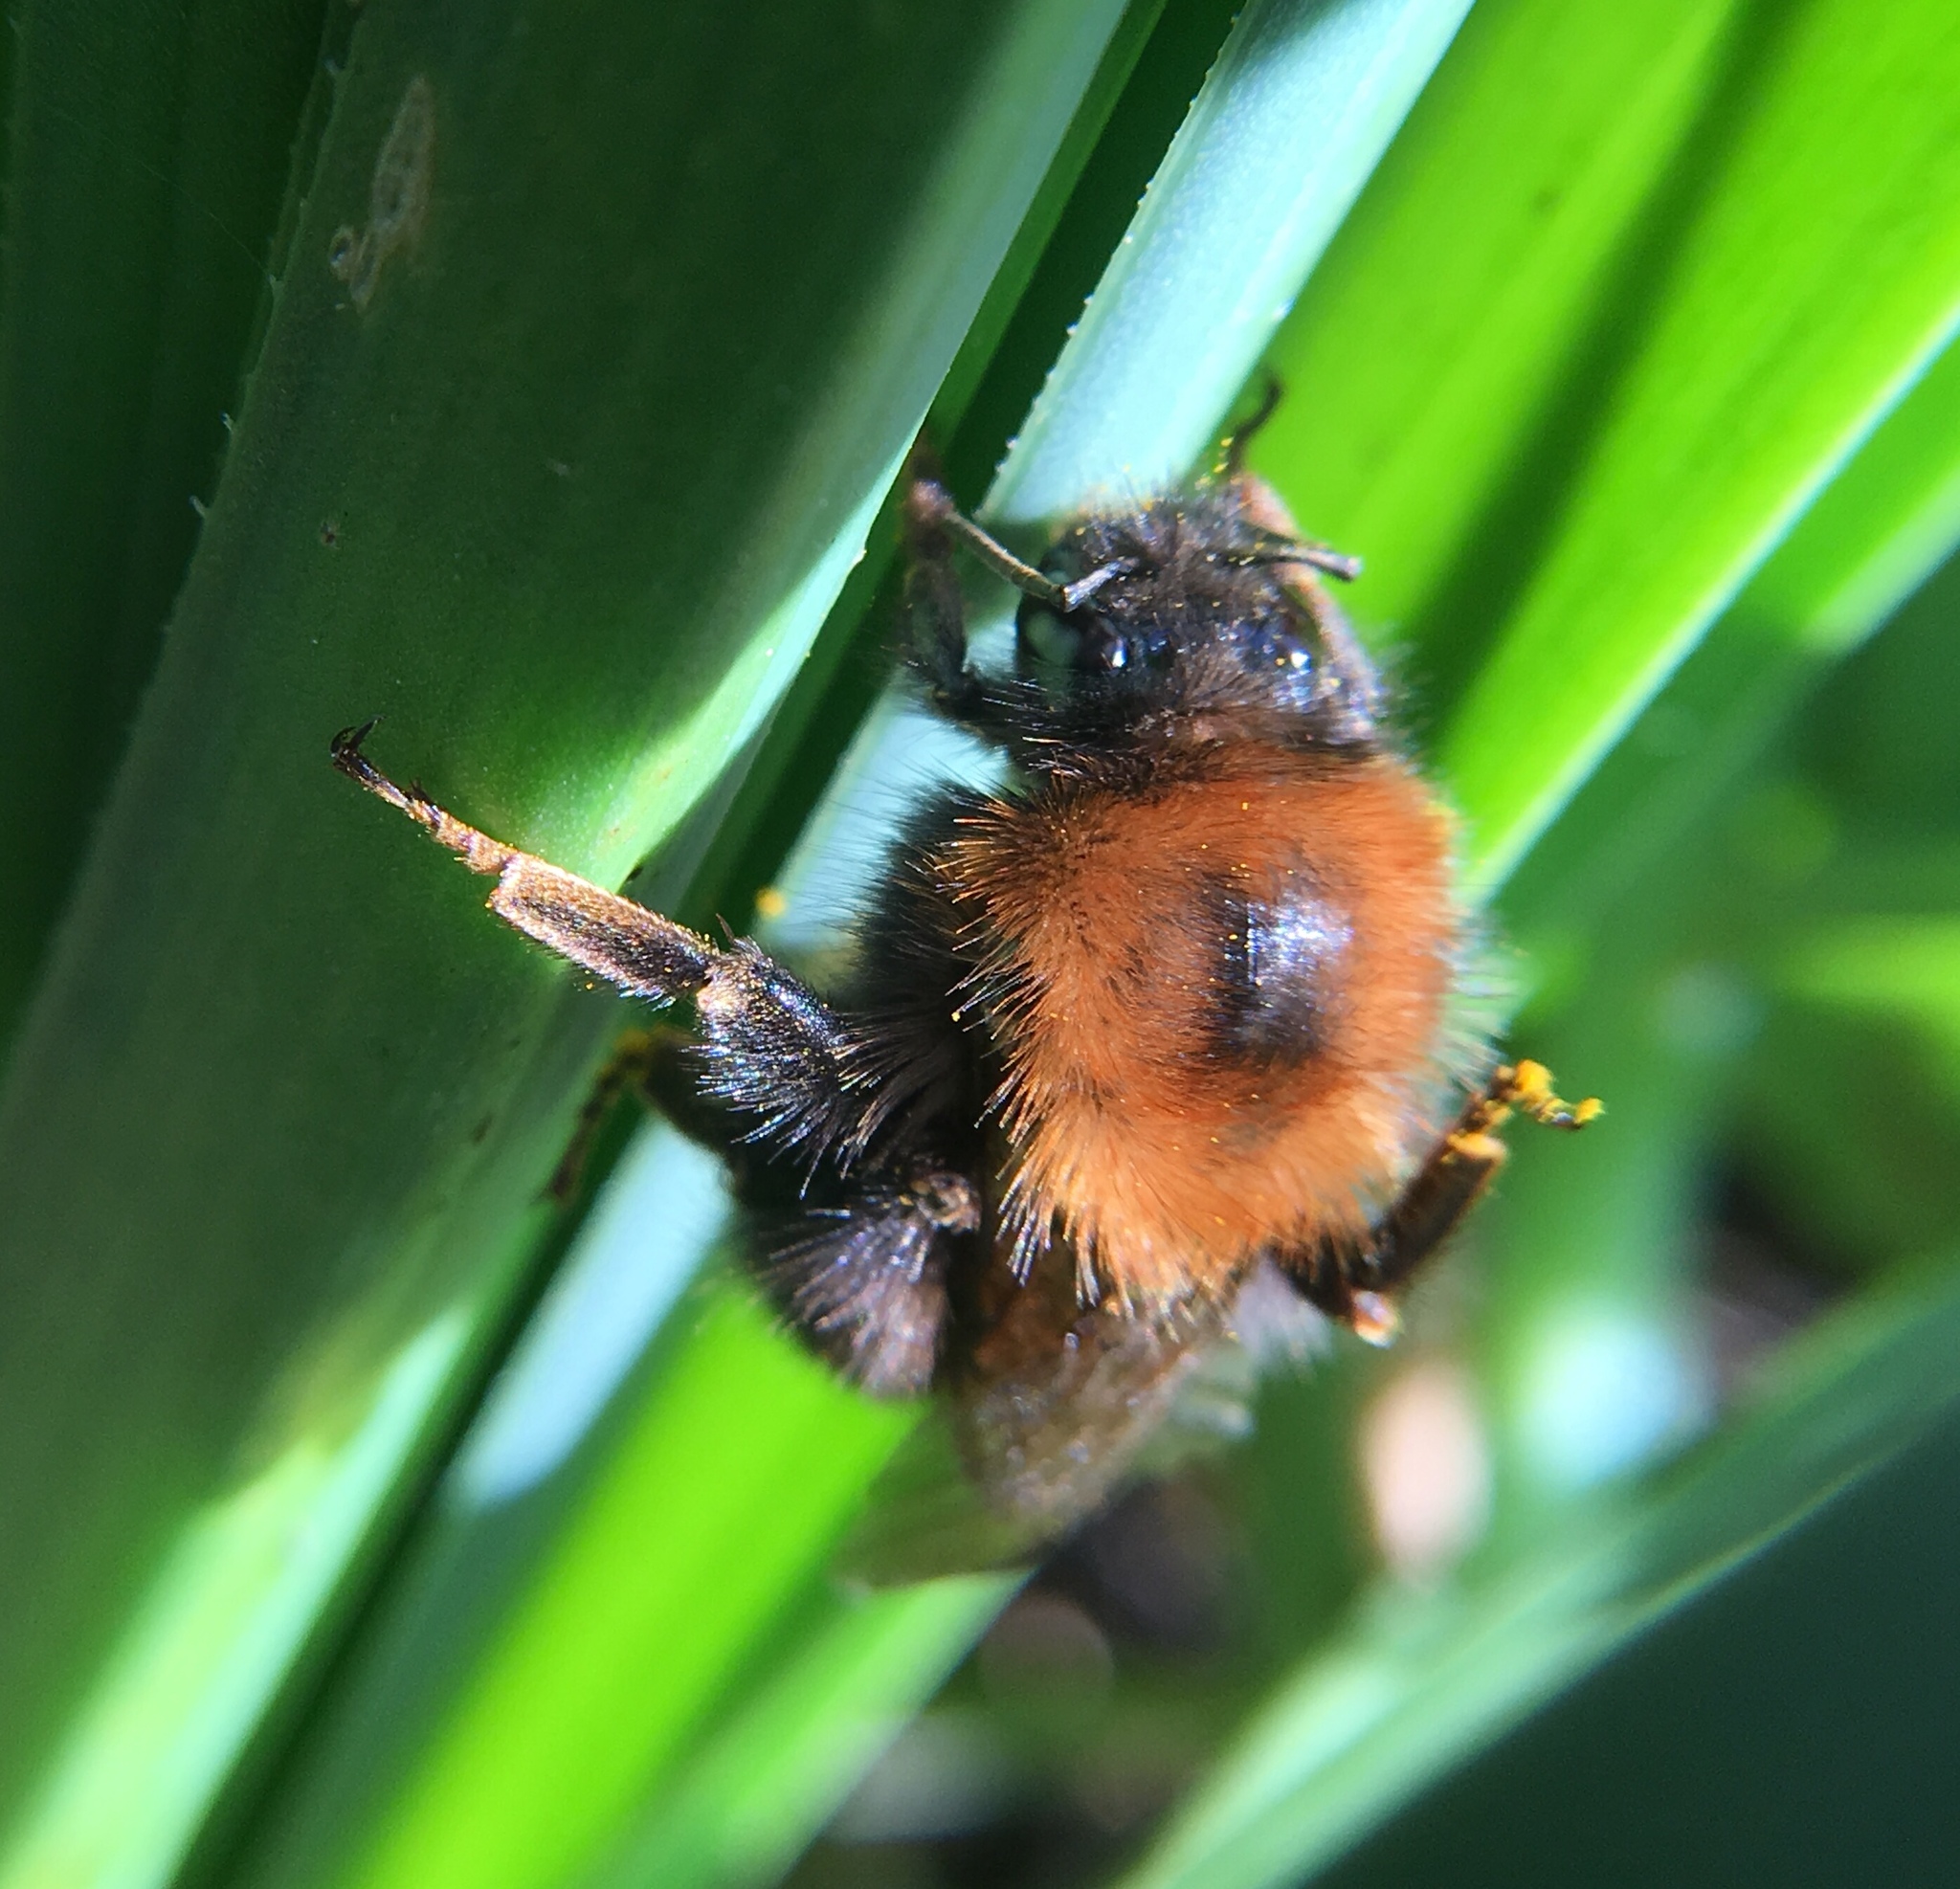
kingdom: Animalia
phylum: Arthropoda
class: Insecta
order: Hymenoptera
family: Apidae
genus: Bombus
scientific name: Bombus hypnorum
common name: New garden bumblebee
